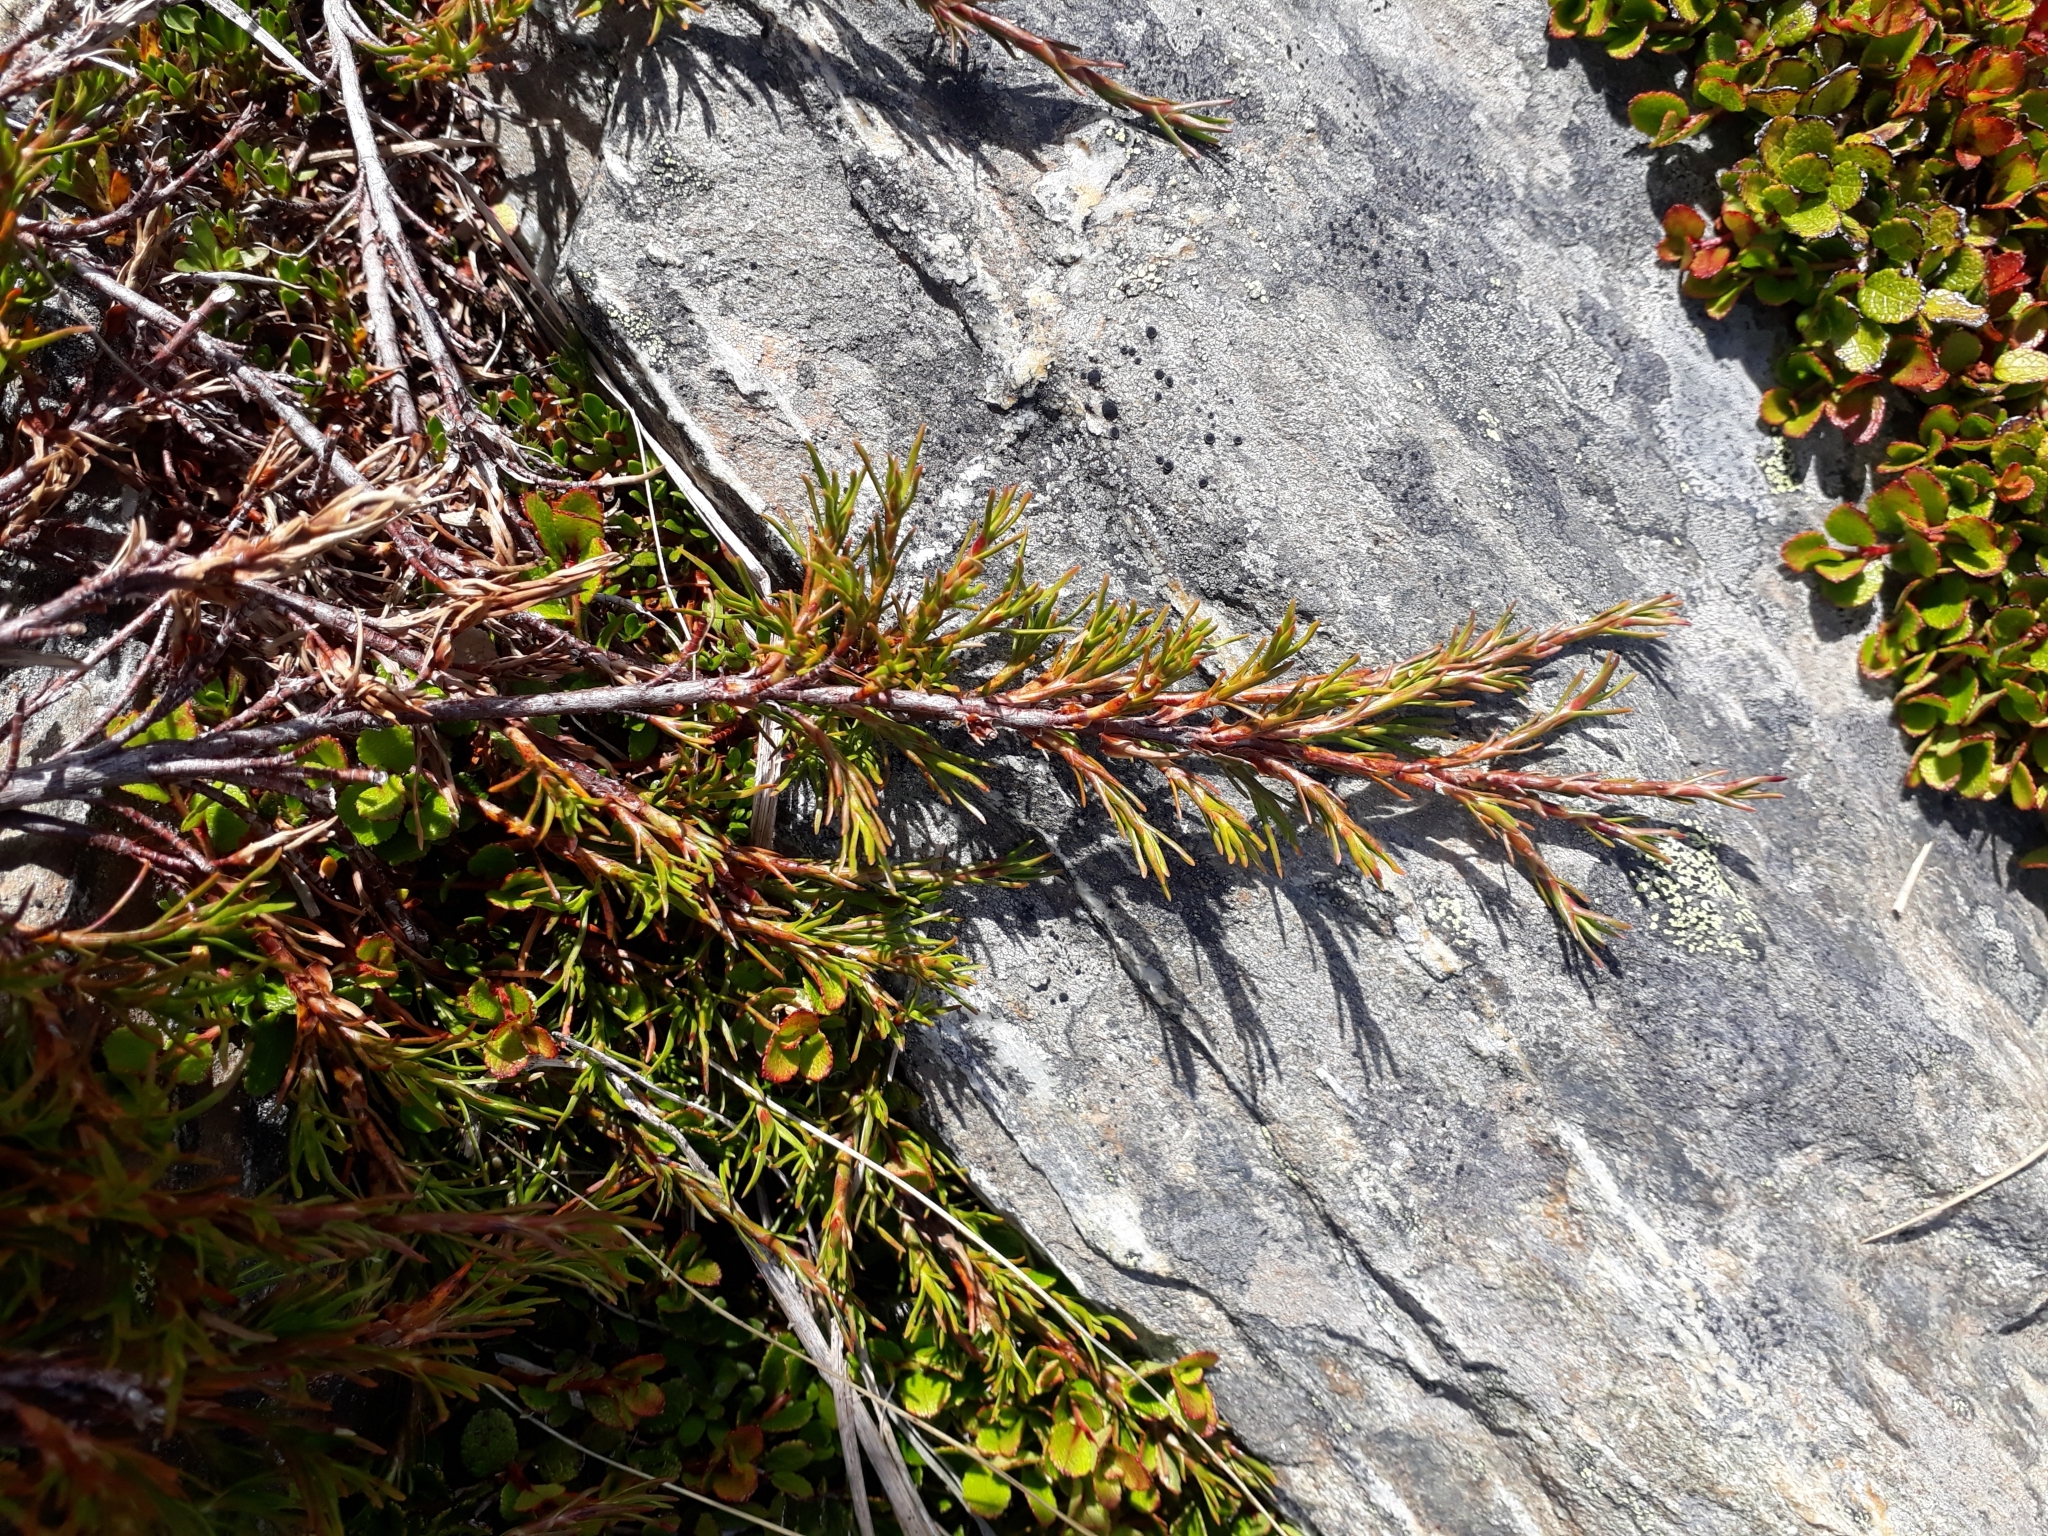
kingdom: Plantae
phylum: Tracheophyta
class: Magnoliopsida
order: Ericales
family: Ericaceae
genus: Dracophyllum
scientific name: Dracophyllum pronum
